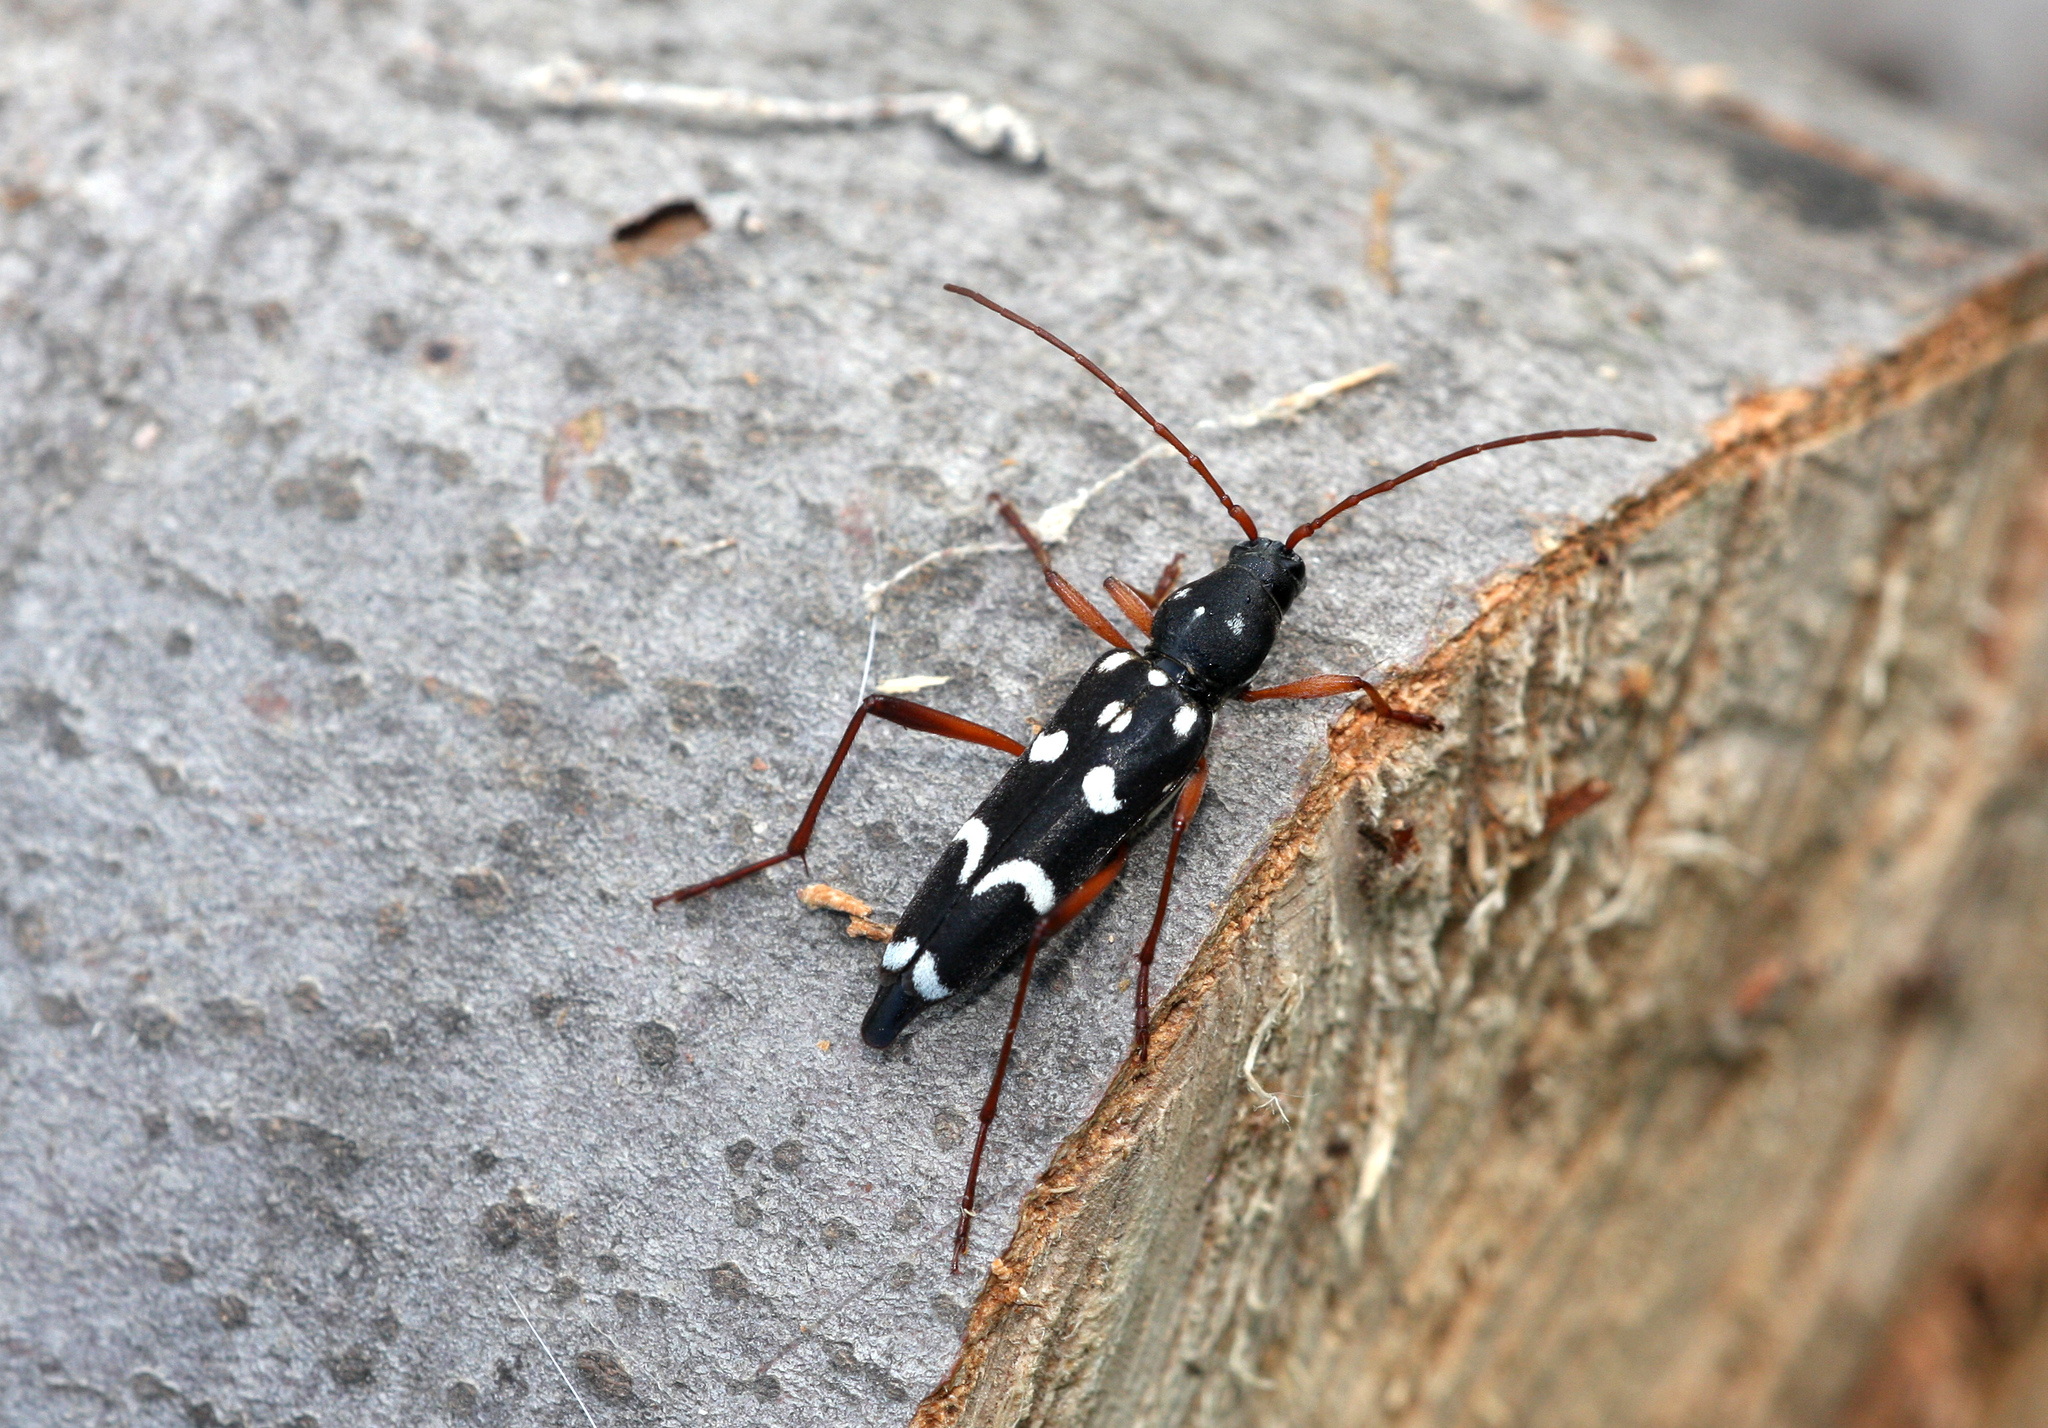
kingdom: Animalia
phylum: Arthropoda
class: Insecta
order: Coleoptera
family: Cerambycidae
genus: Isotomus
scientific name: Isotomus speciosus
